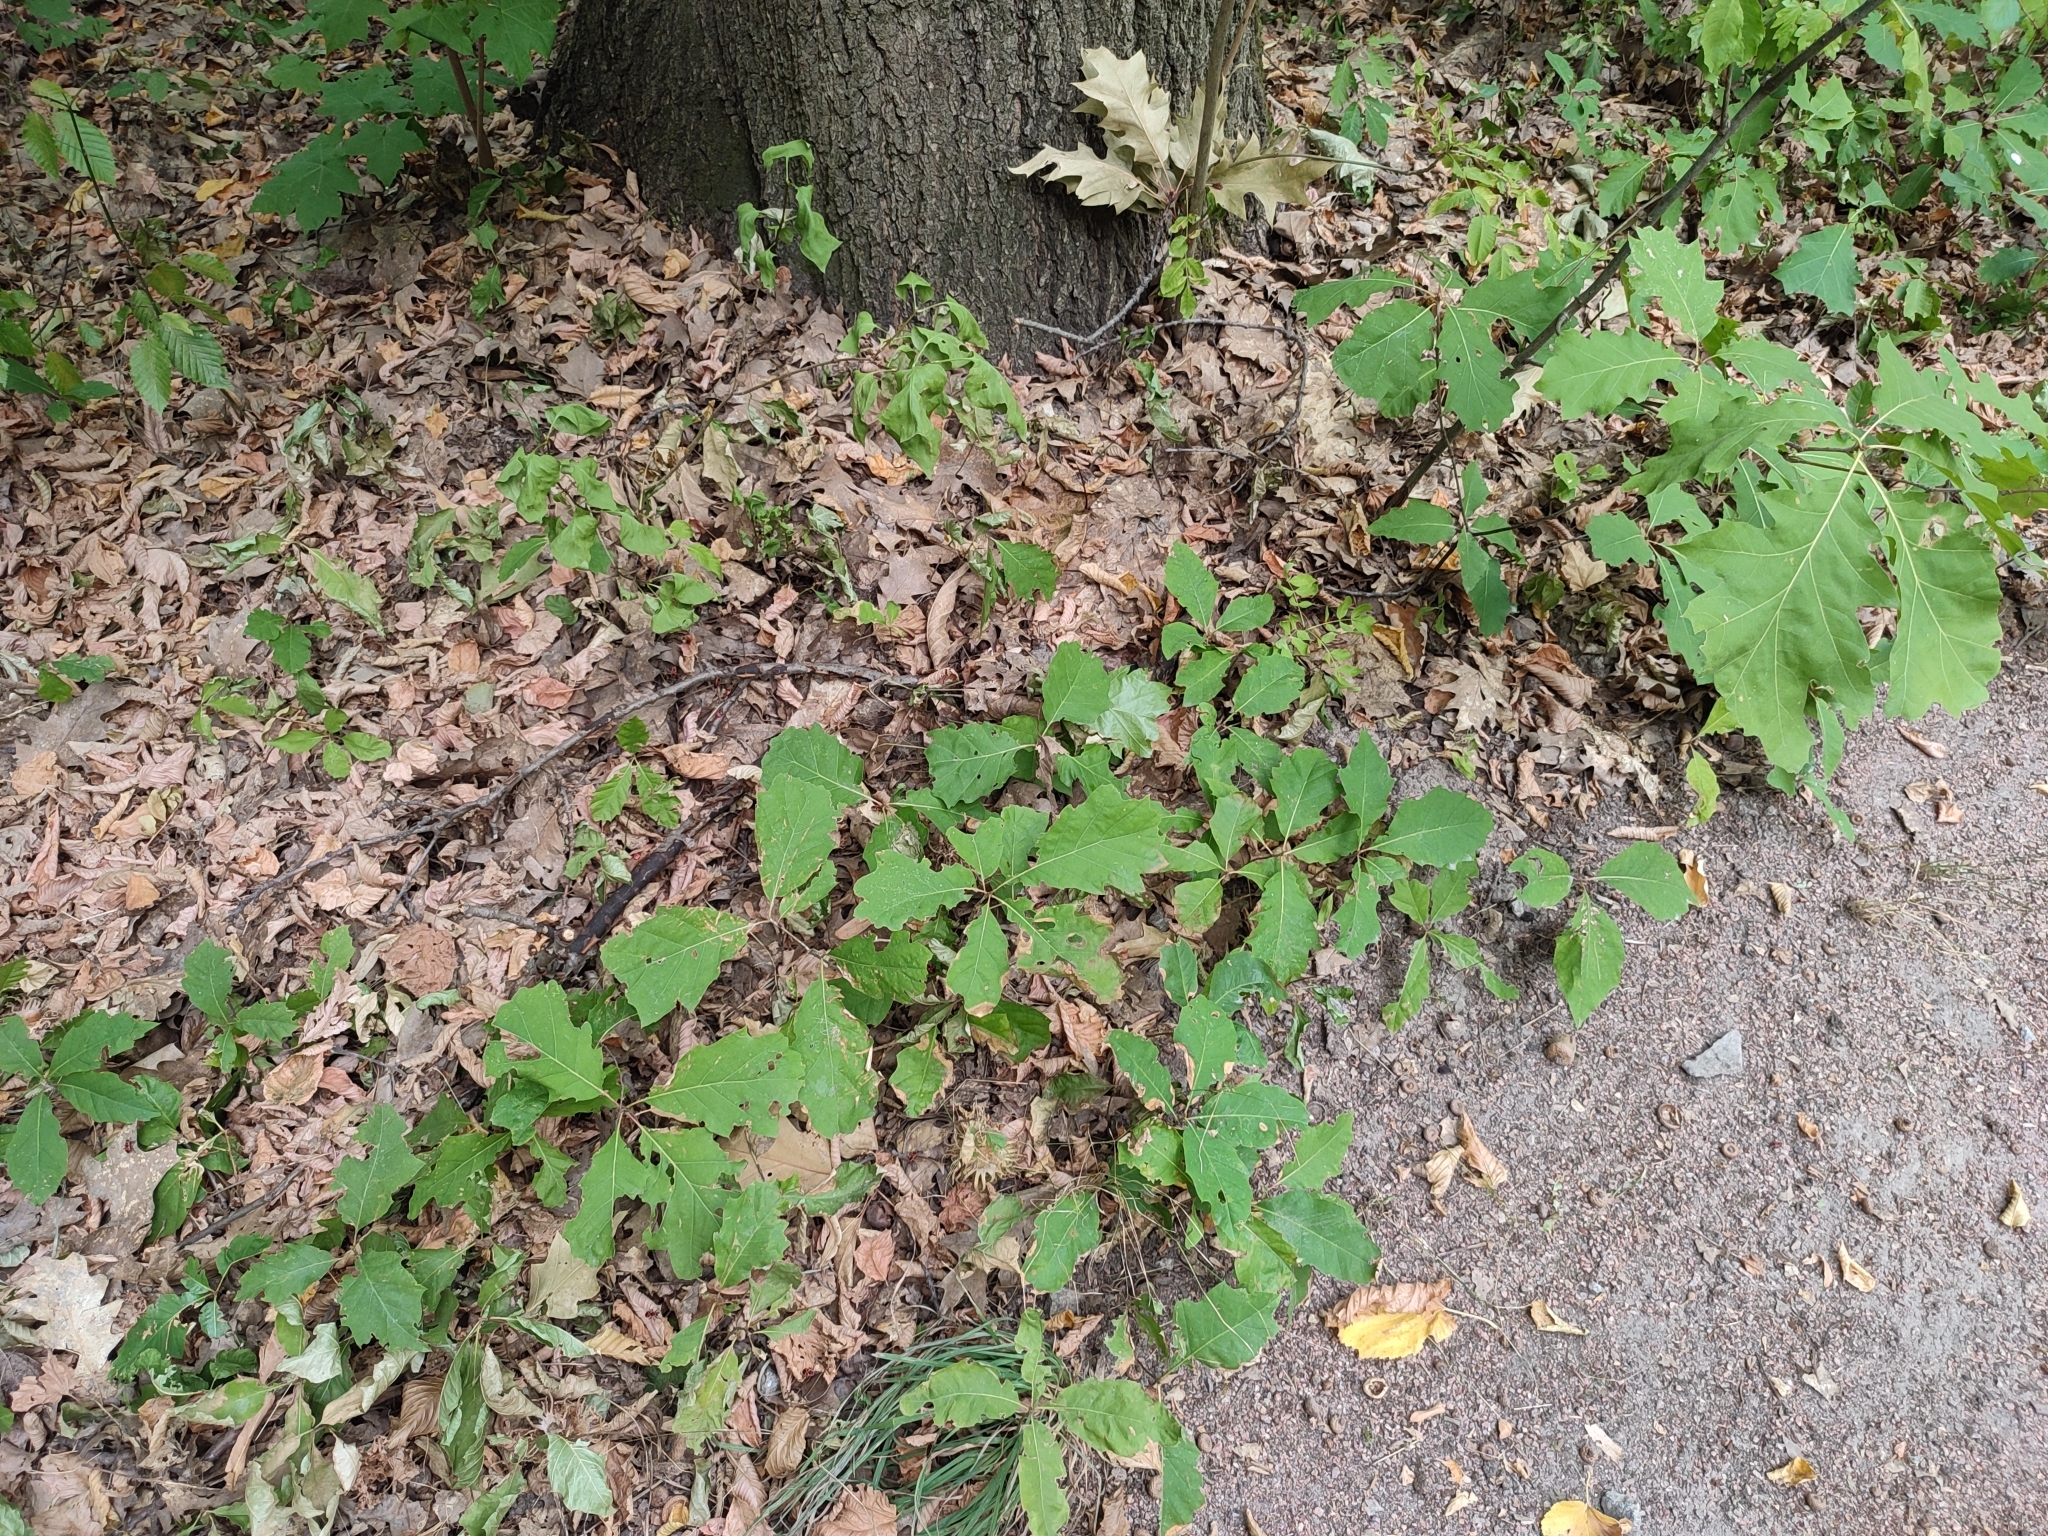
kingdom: Plantae
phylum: Tracheophyta
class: Magnoliopsida
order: Fagales
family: Fagaceae
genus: Quercus
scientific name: Quercus rubra
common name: Red oak
